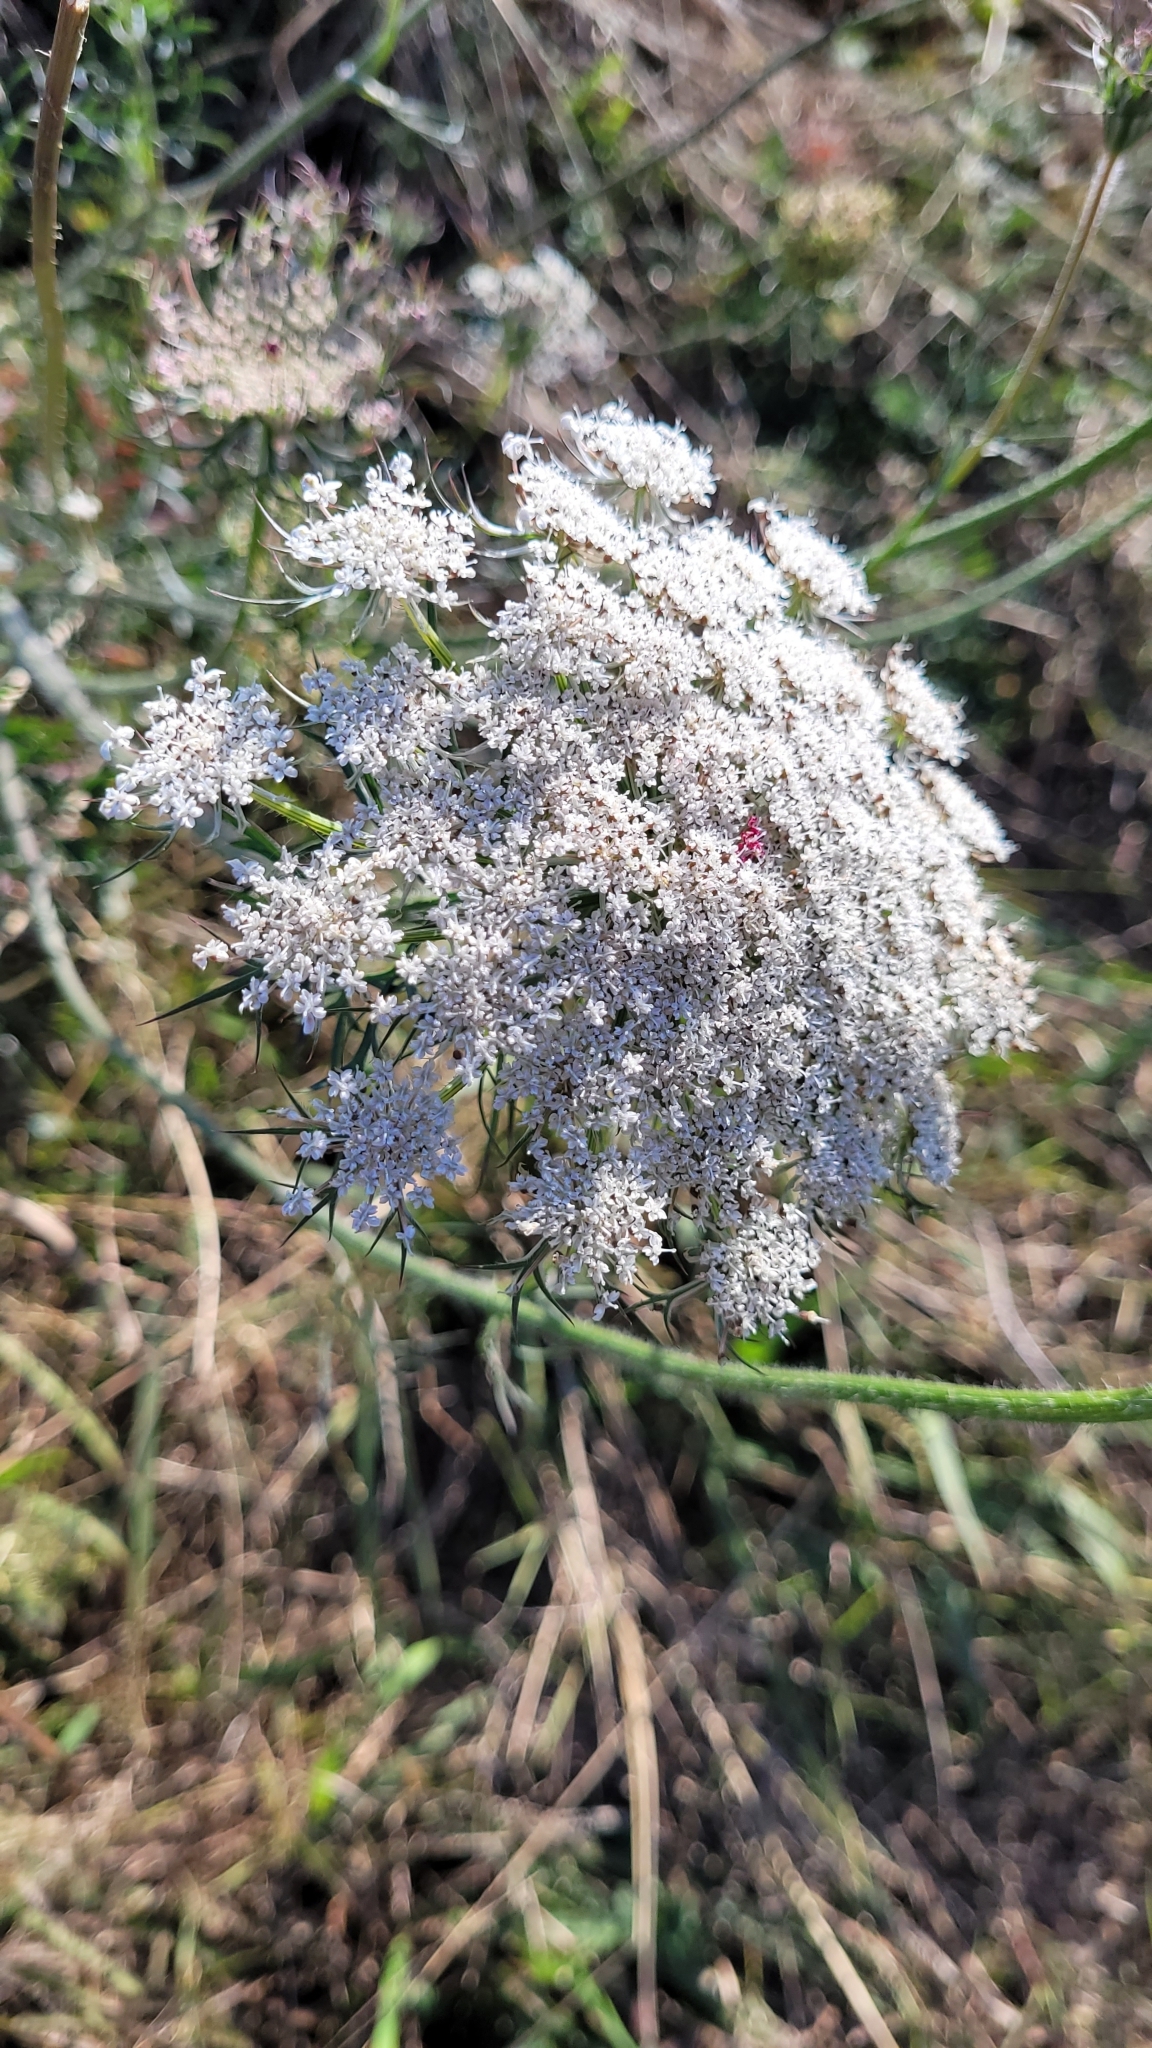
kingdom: Plantae
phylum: Tracheophyta
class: Magnoliopsida
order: Apiales
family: Apiaceae
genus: Daucus
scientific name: Daucus carota
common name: Wild carrot
